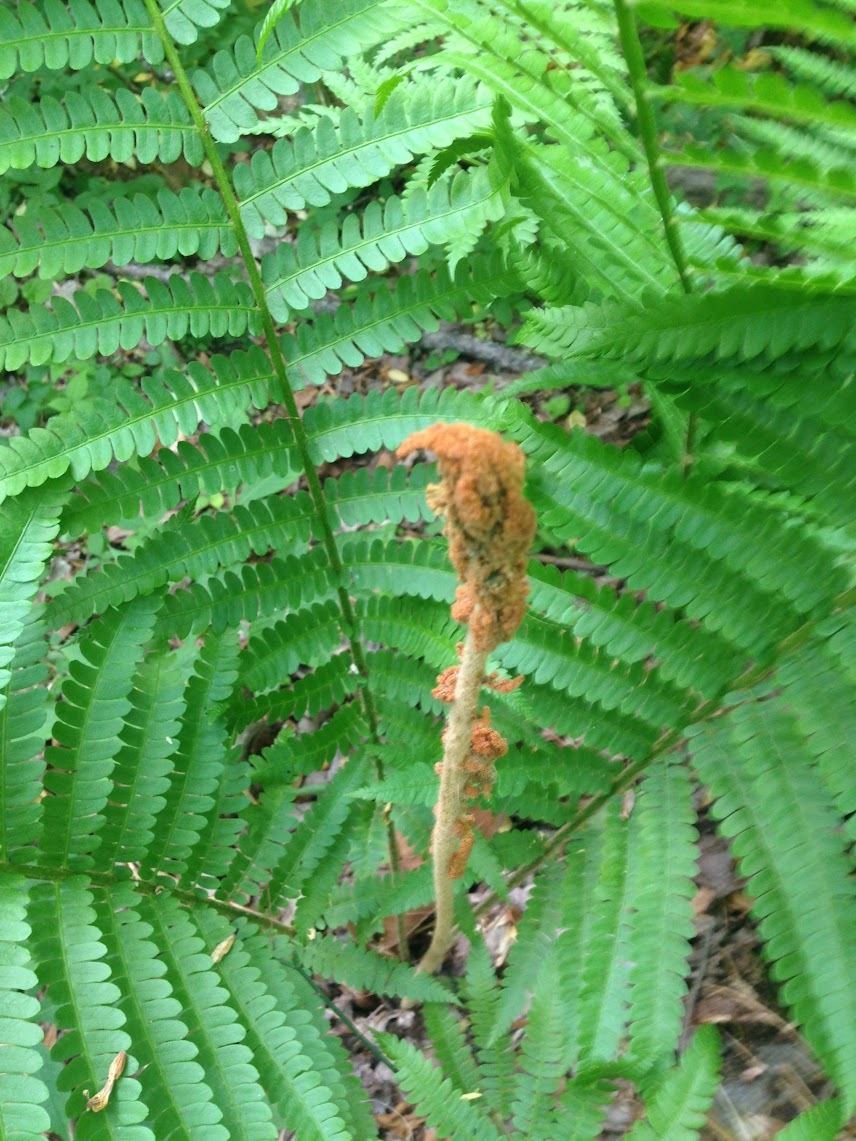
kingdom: Plantae
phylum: Tracheophyta
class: Polypodiopsida
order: Osmundales
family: Osmundaceae
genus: Osmundastrum
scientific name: Osmundastrum cinnamomeum
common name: Cinnamon fern
